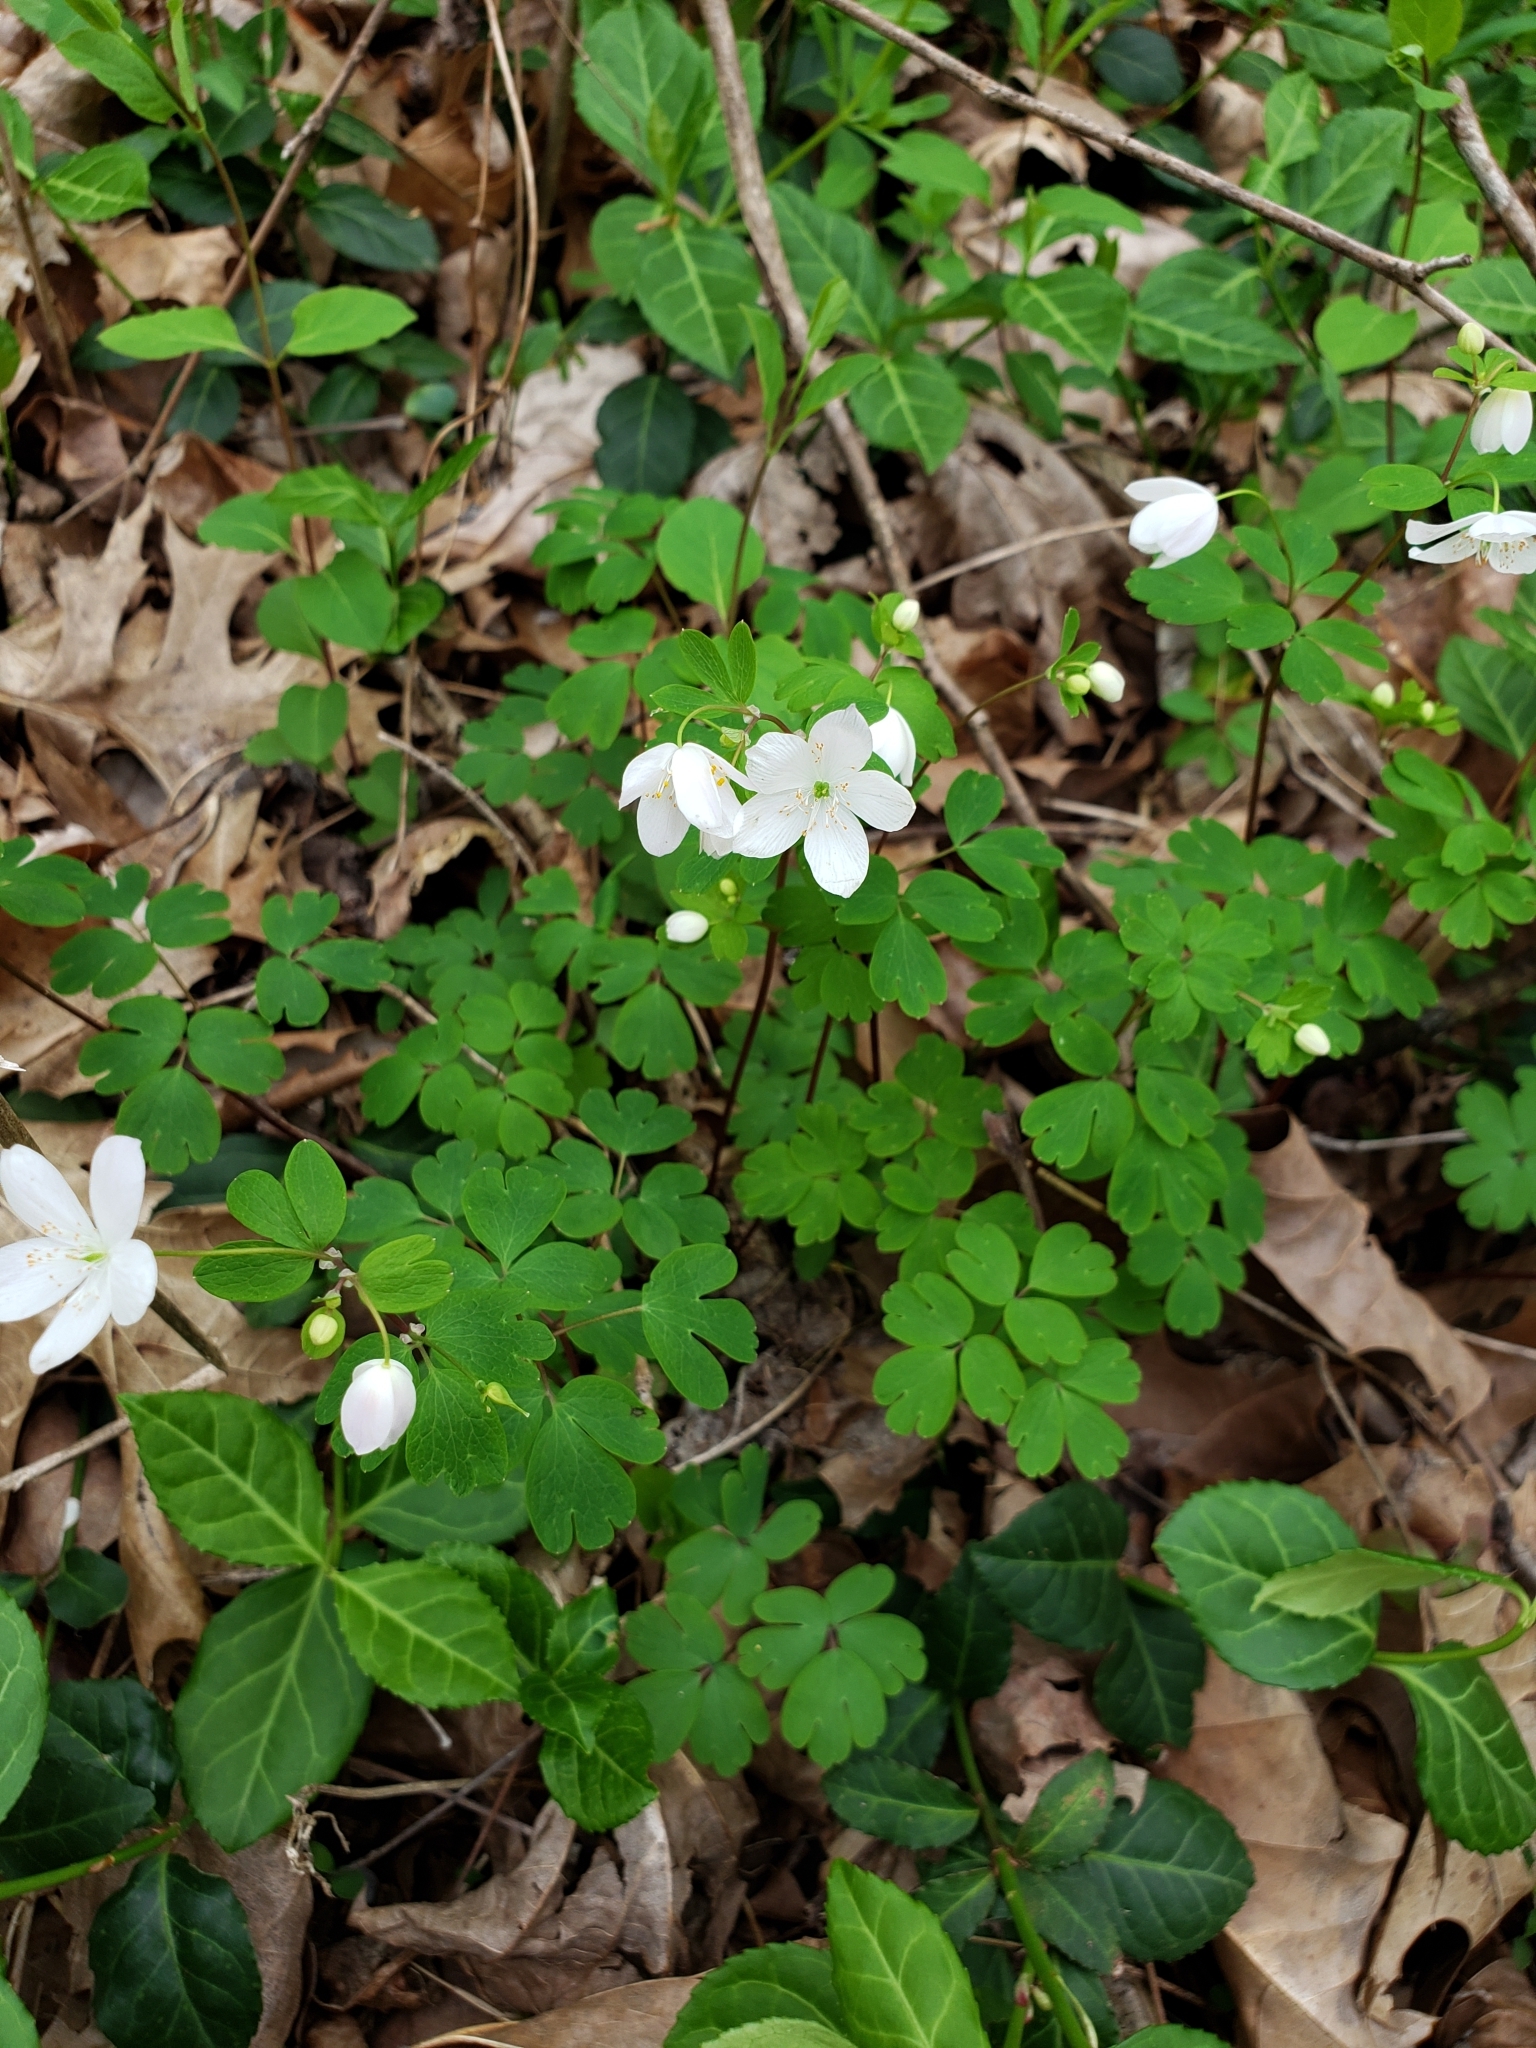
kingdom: Plantae
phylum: Tracheophyta
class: Magnoliopsida
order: Ranunculales
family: Ranunculaceae
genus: Enemion
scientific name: Enemion biternatum
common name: Eastern false rue-anemone
